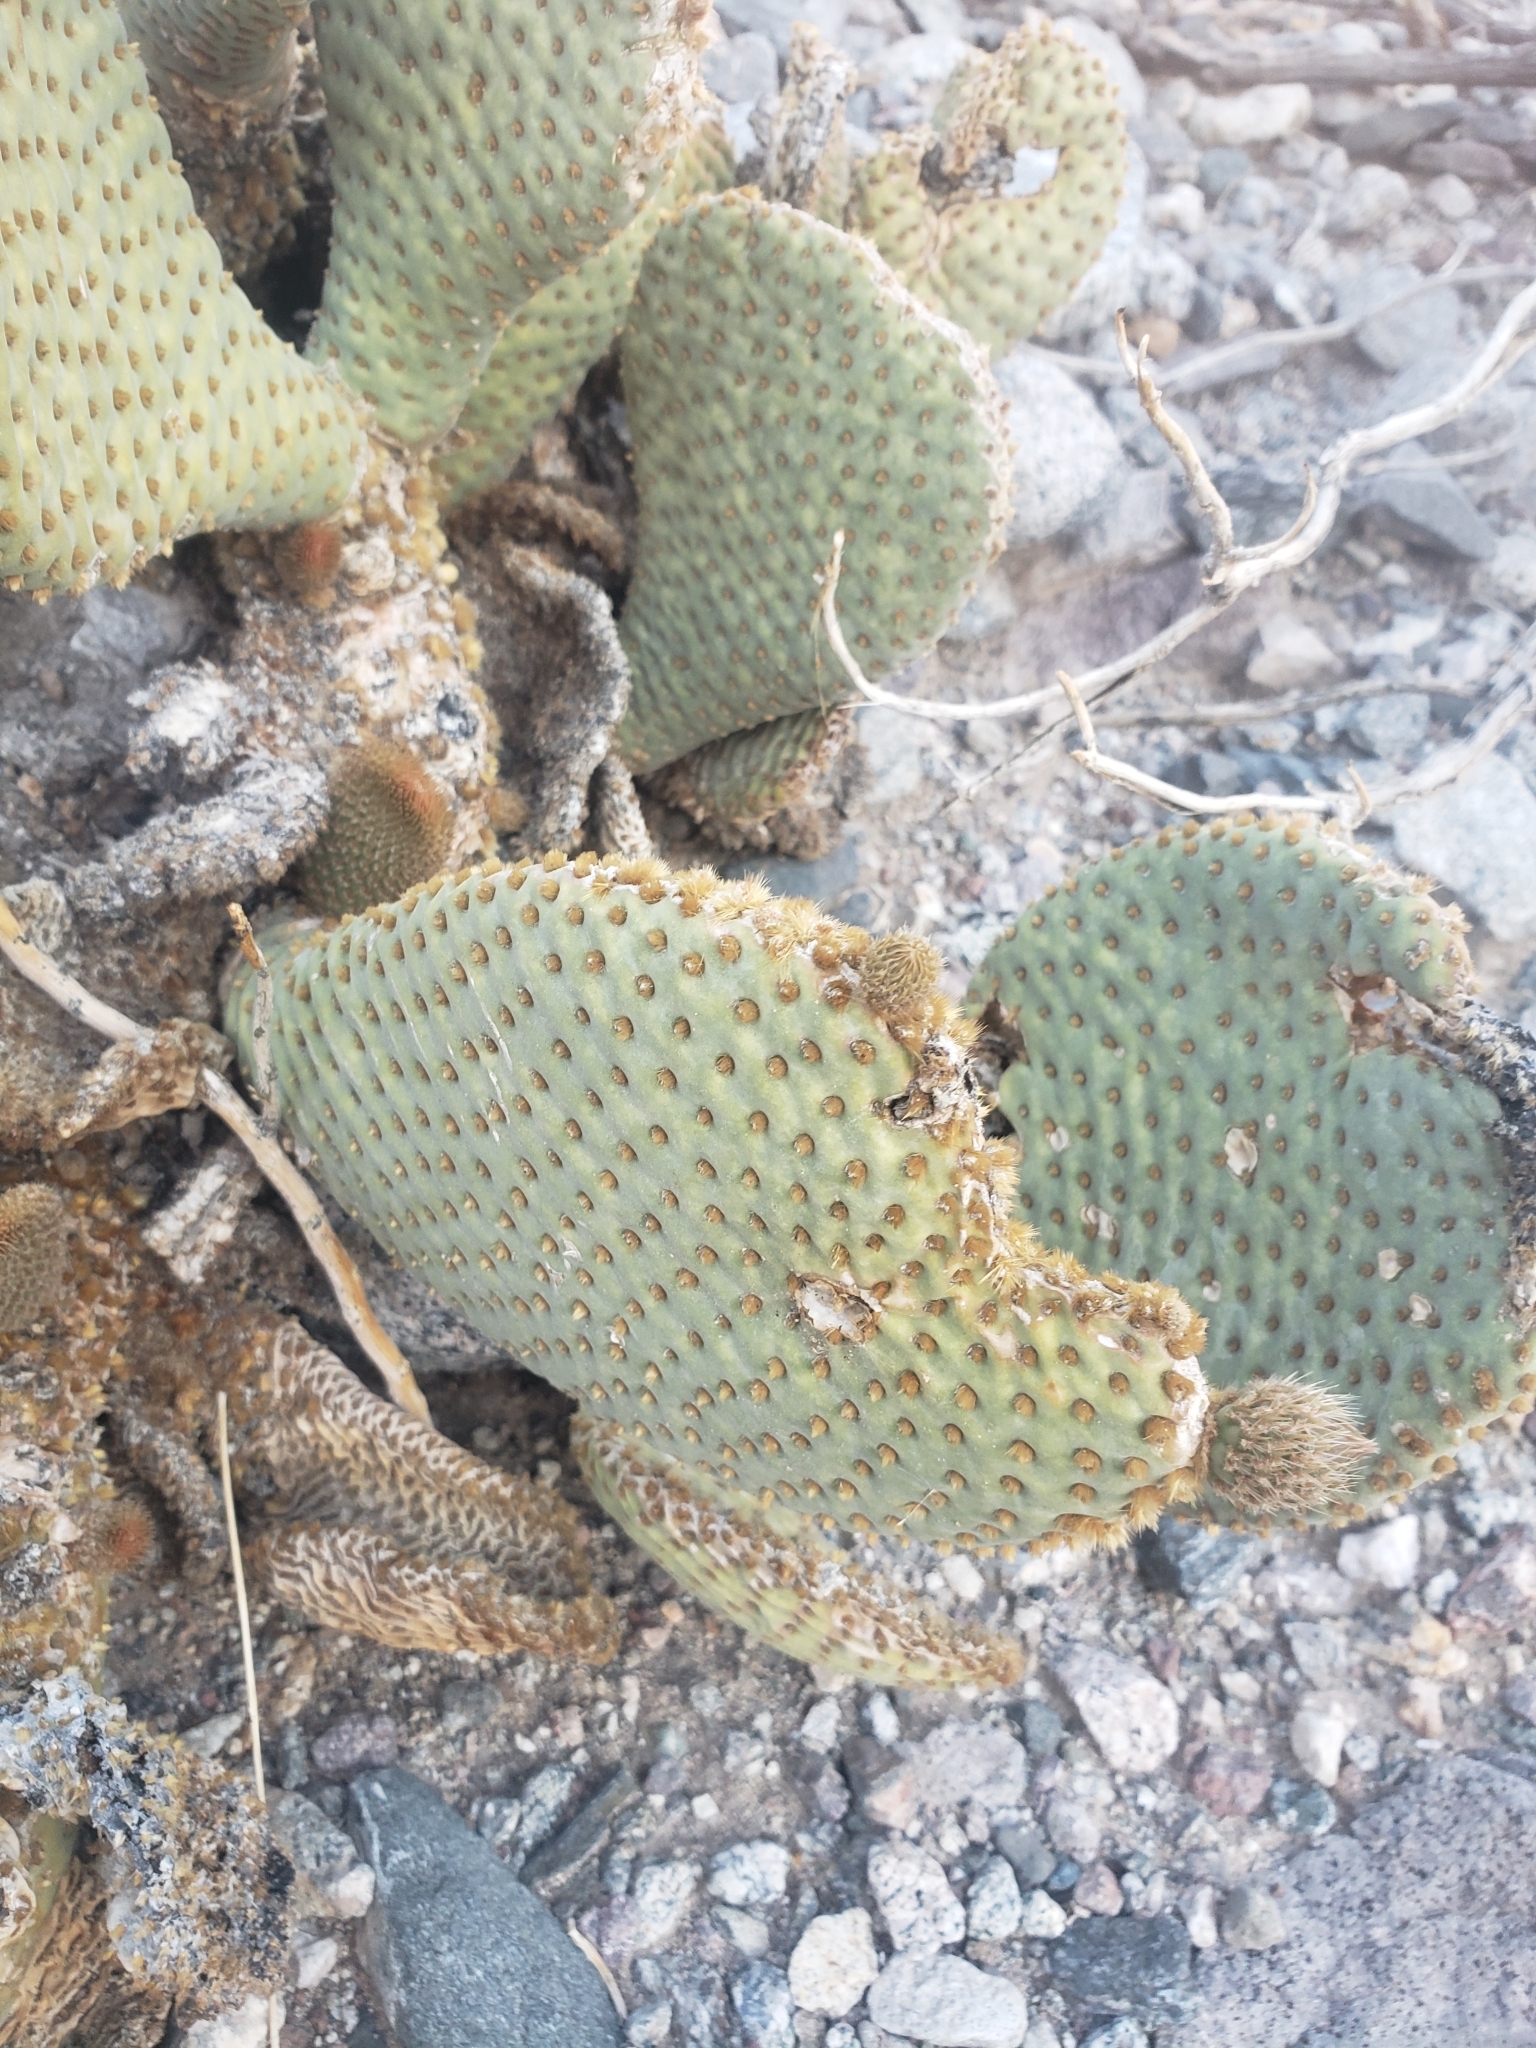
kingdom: Plantae
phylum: Tracheophyta
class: Magnoliopsida
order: Caryophyllales
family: Cactaceae
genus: Opuntia
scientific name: Opuntia basilaris
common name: Beavertail prickly-pear
